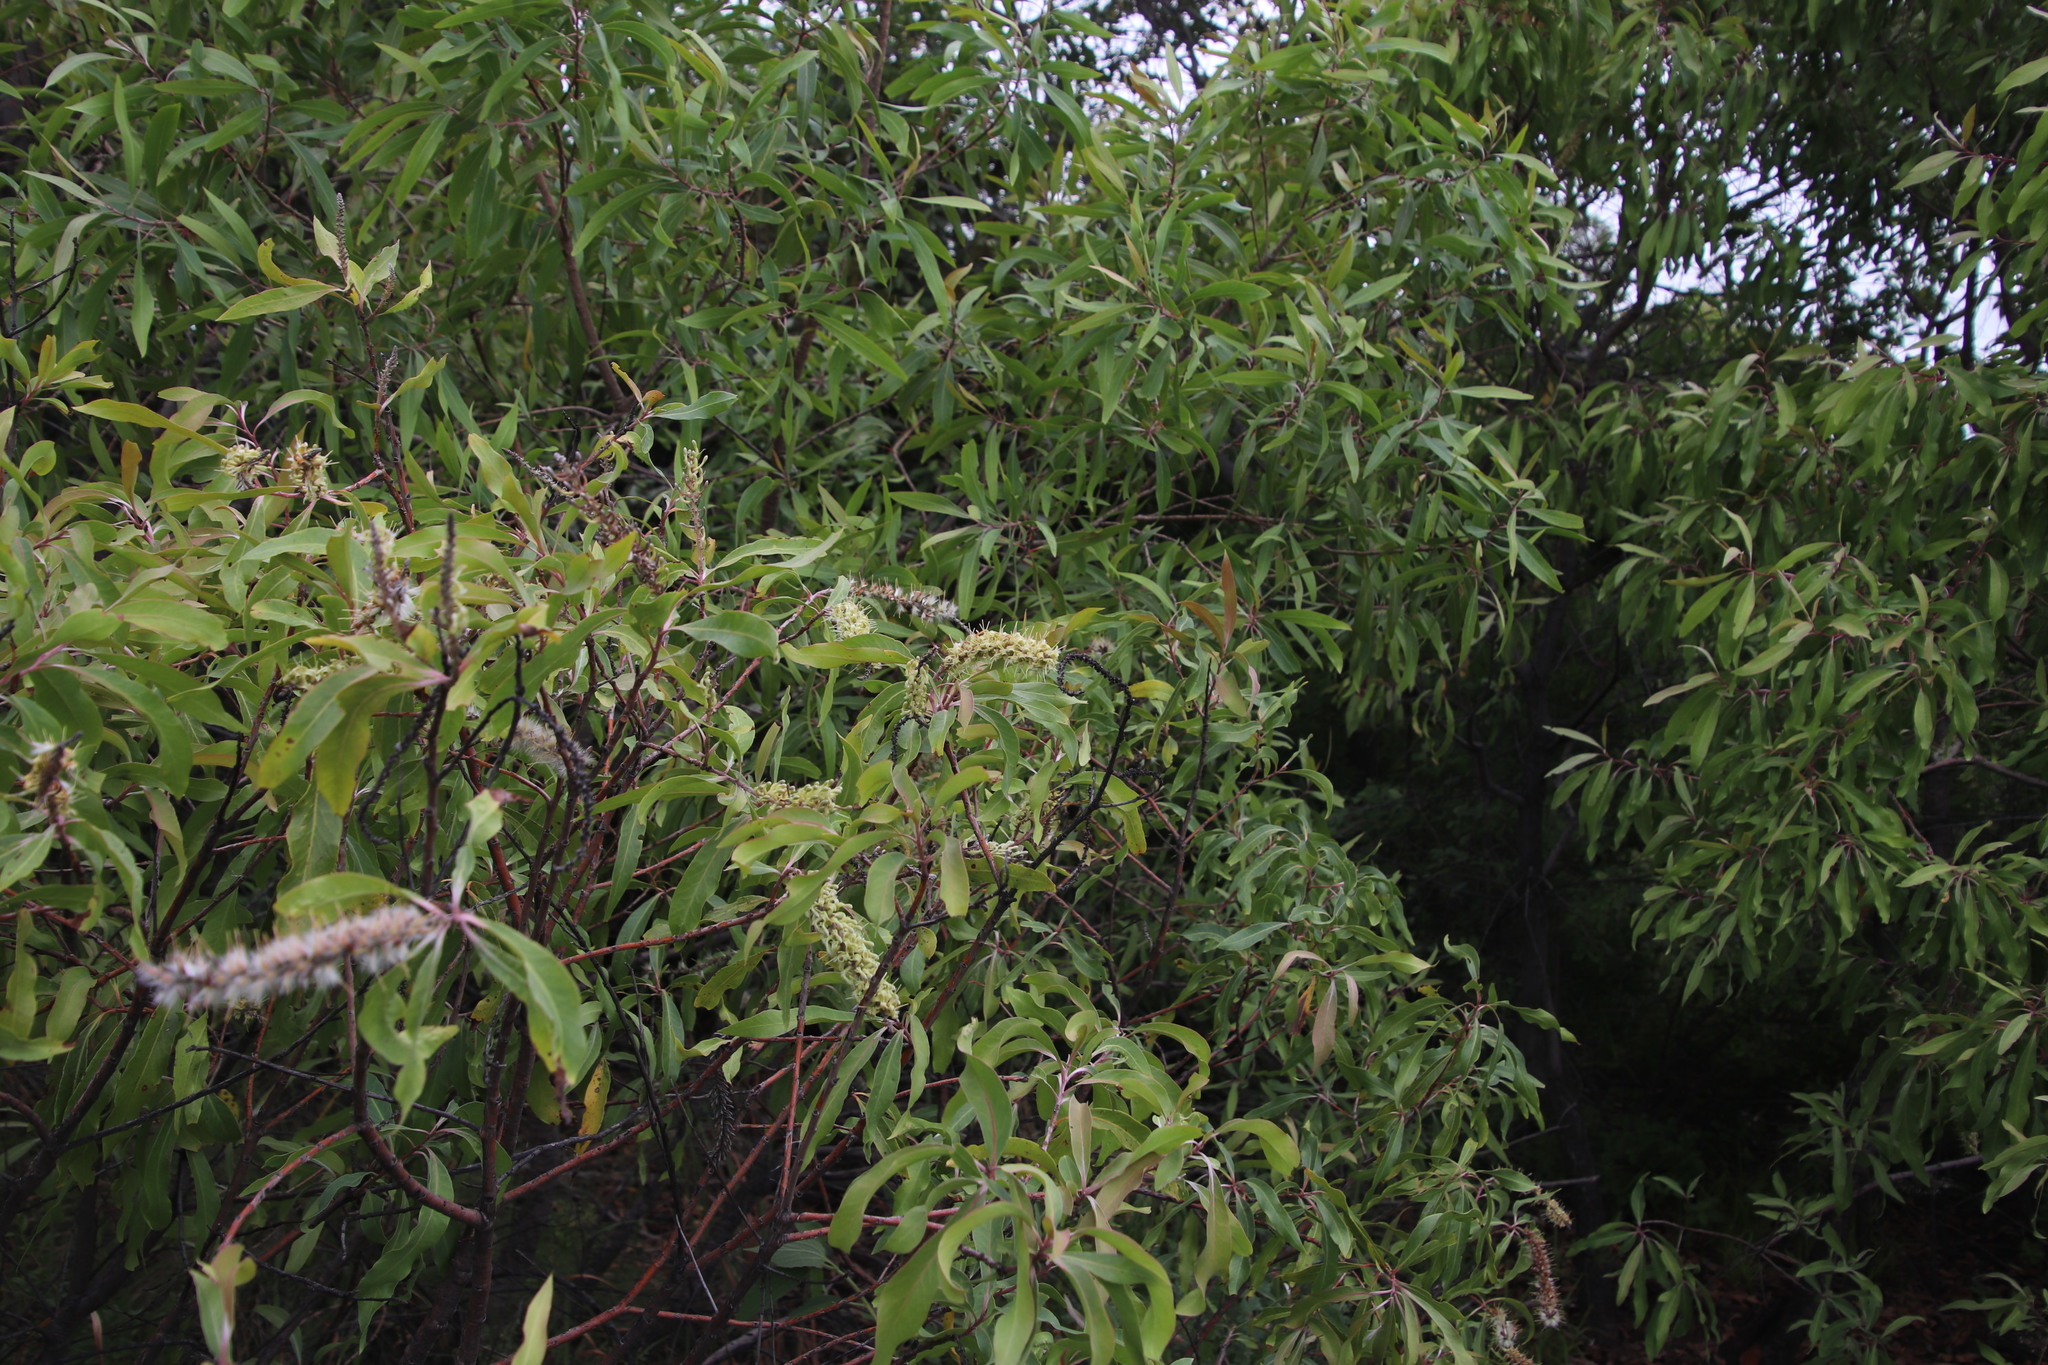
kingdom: Plantae
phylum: Tracheophyta
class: Magnoliopsida
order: Proteales
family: Proteaceae
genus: Faurea
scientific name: Faurea saligna
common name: African bean
